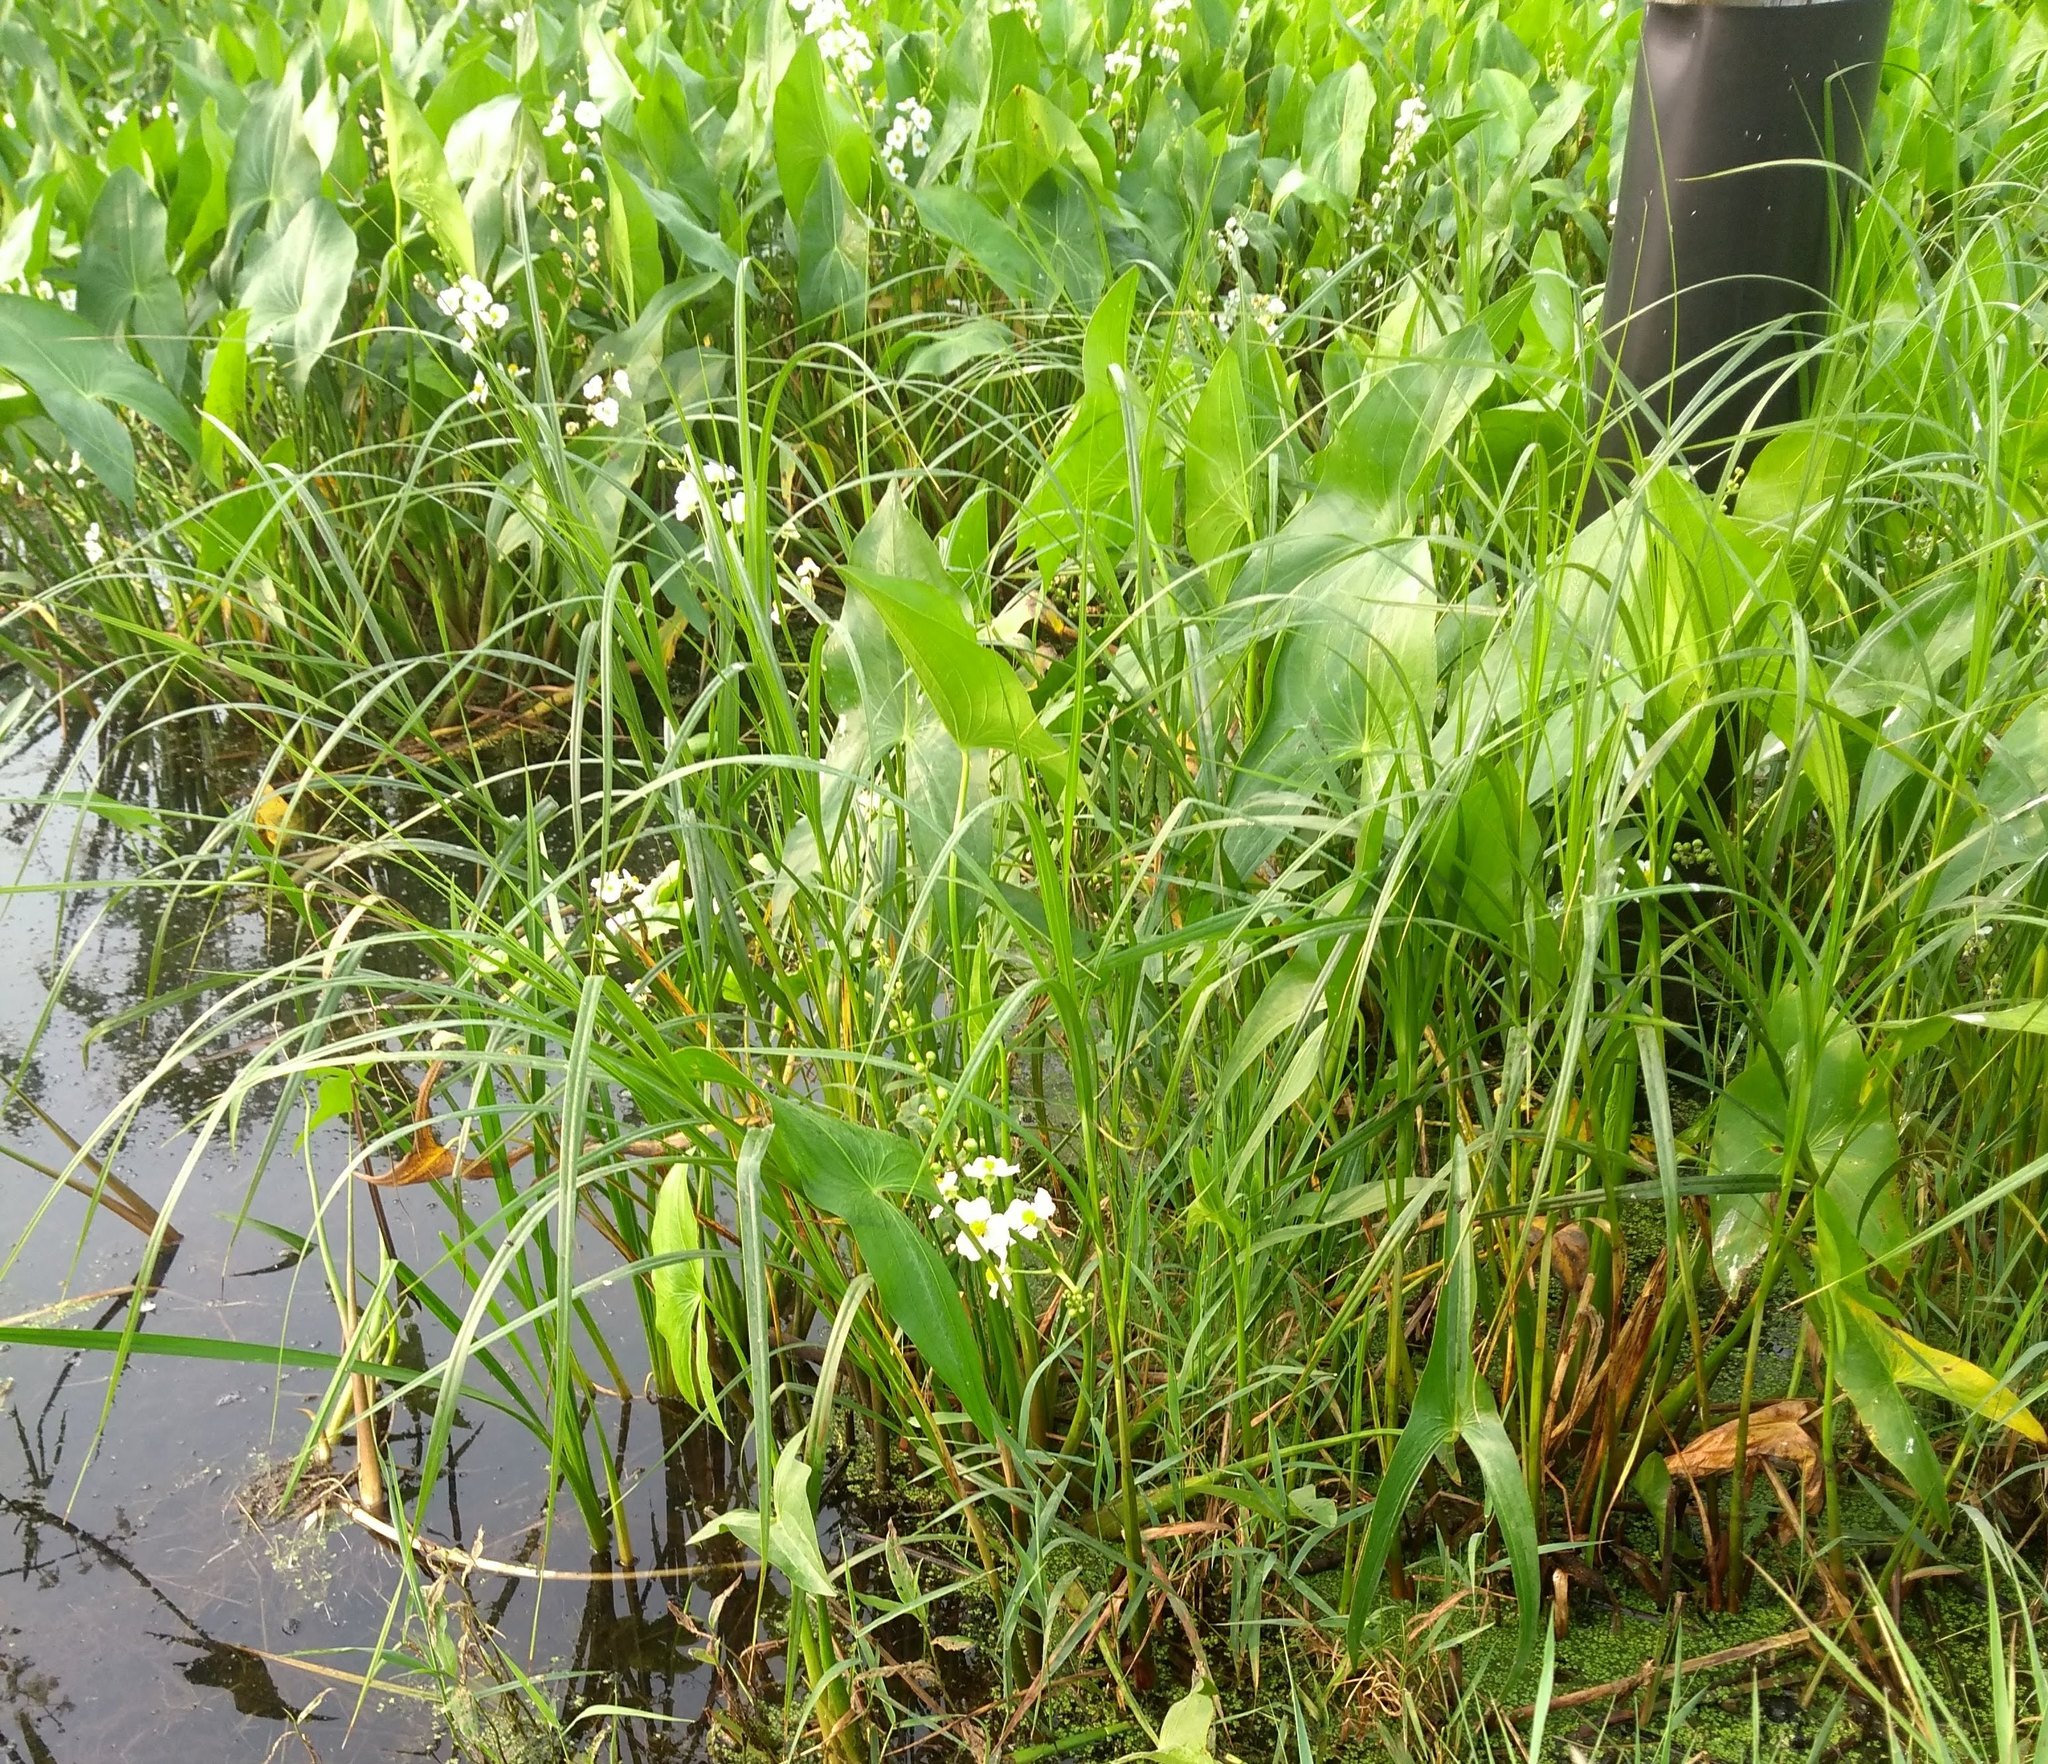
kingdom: Plantae
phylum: Tracheophyta
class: Liliopsida
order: Alismatales
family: Alismataceae
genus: Sagittaria
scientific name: Sagittaria latifolia
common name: Duck-potato
